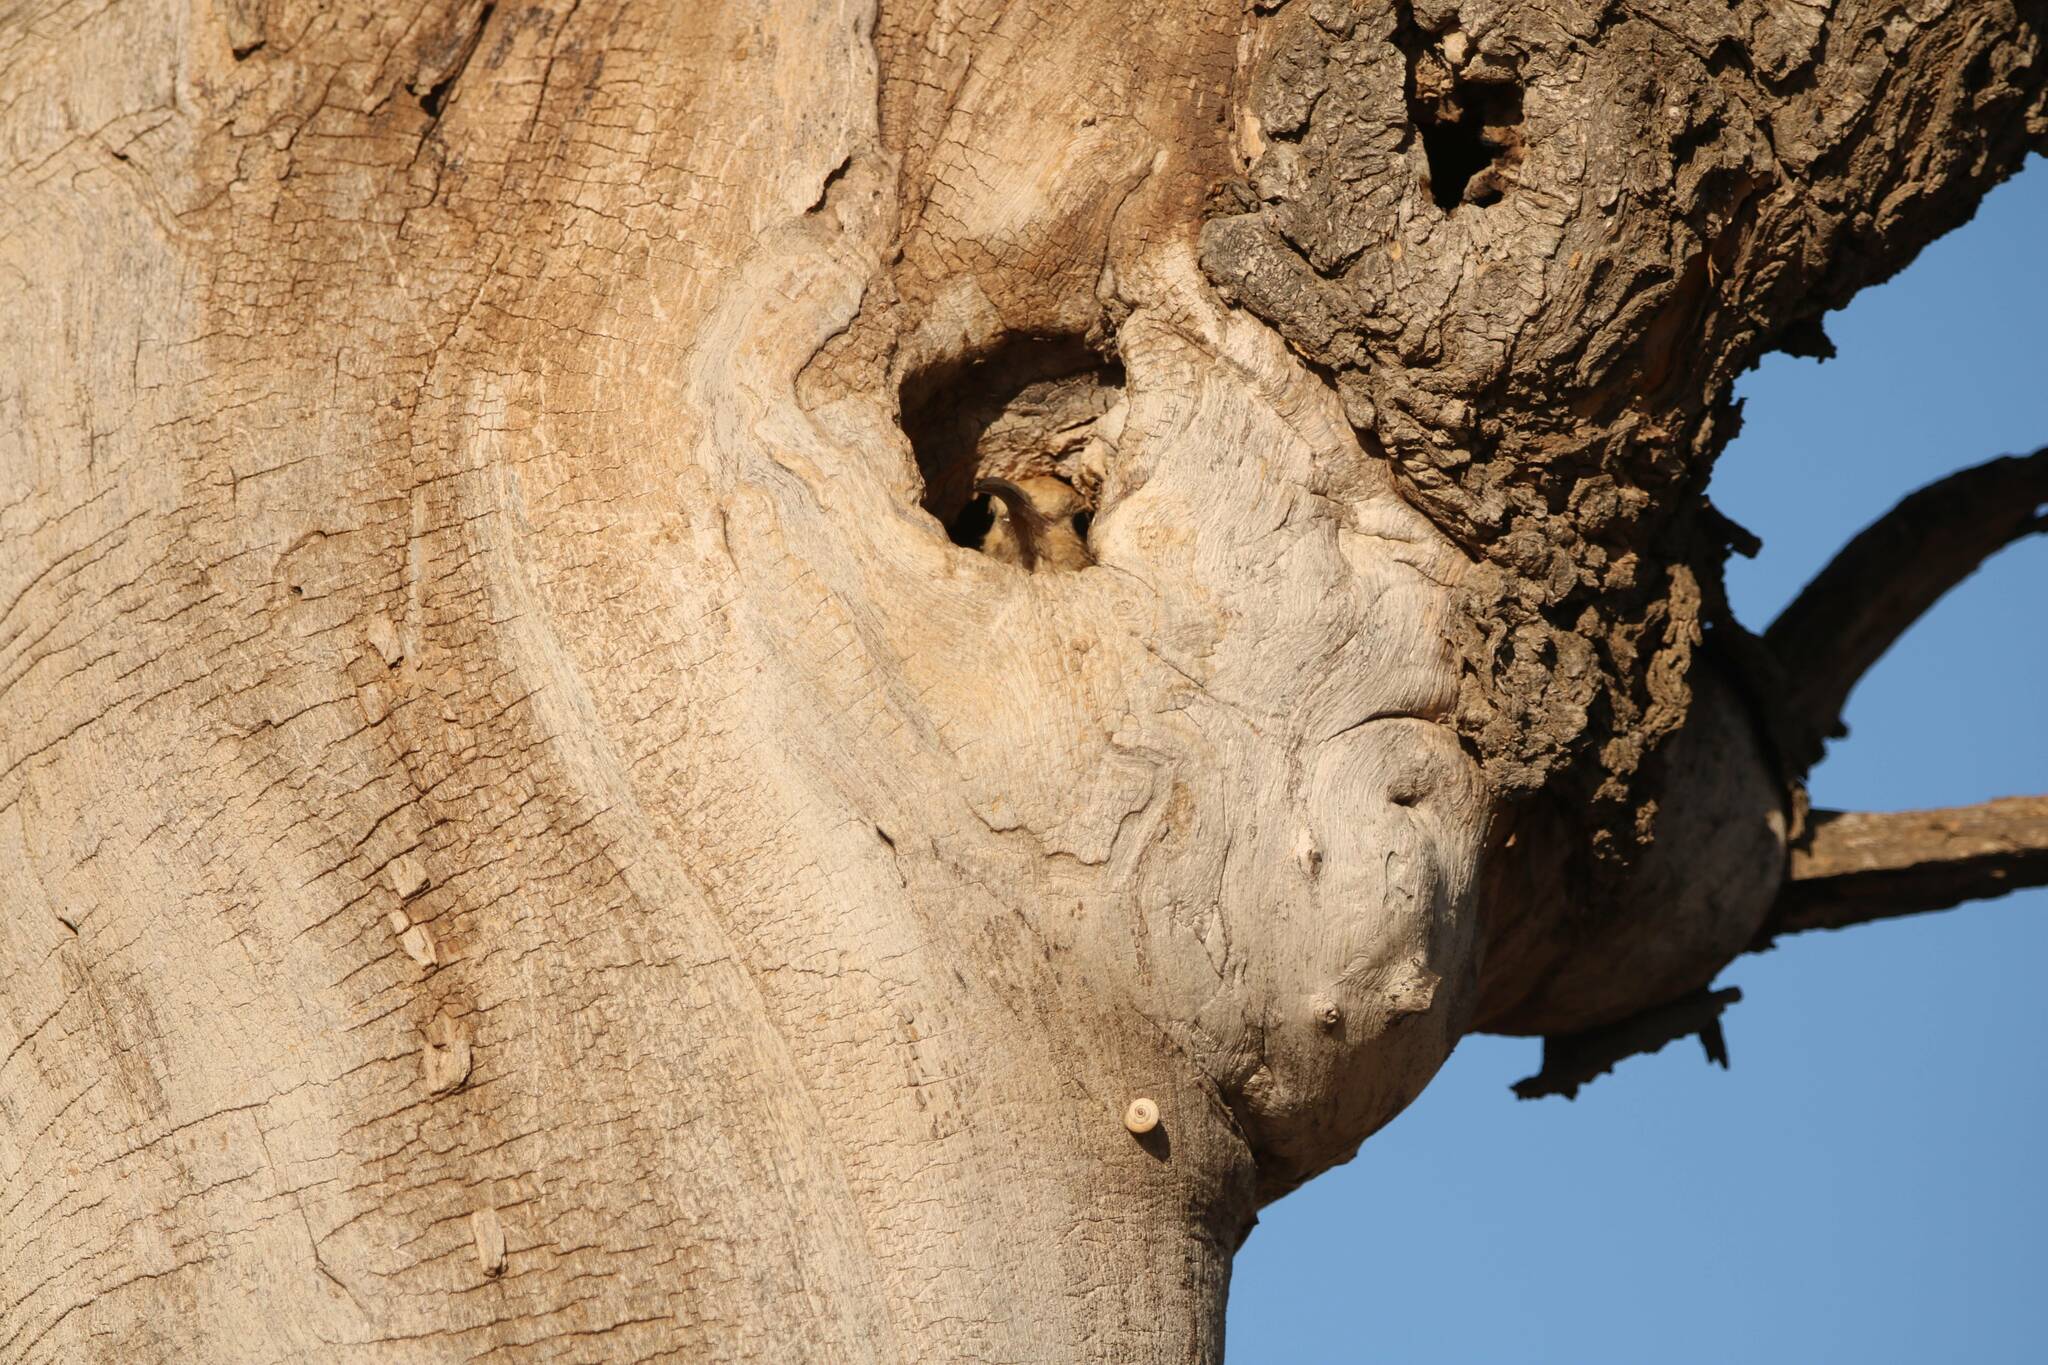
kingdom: Animalia
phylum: Chordata
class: Aves
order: Bucerotiformes
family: Upupidae
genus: Upupa
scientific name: Upupa epops
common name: Eurasian hoopoe
